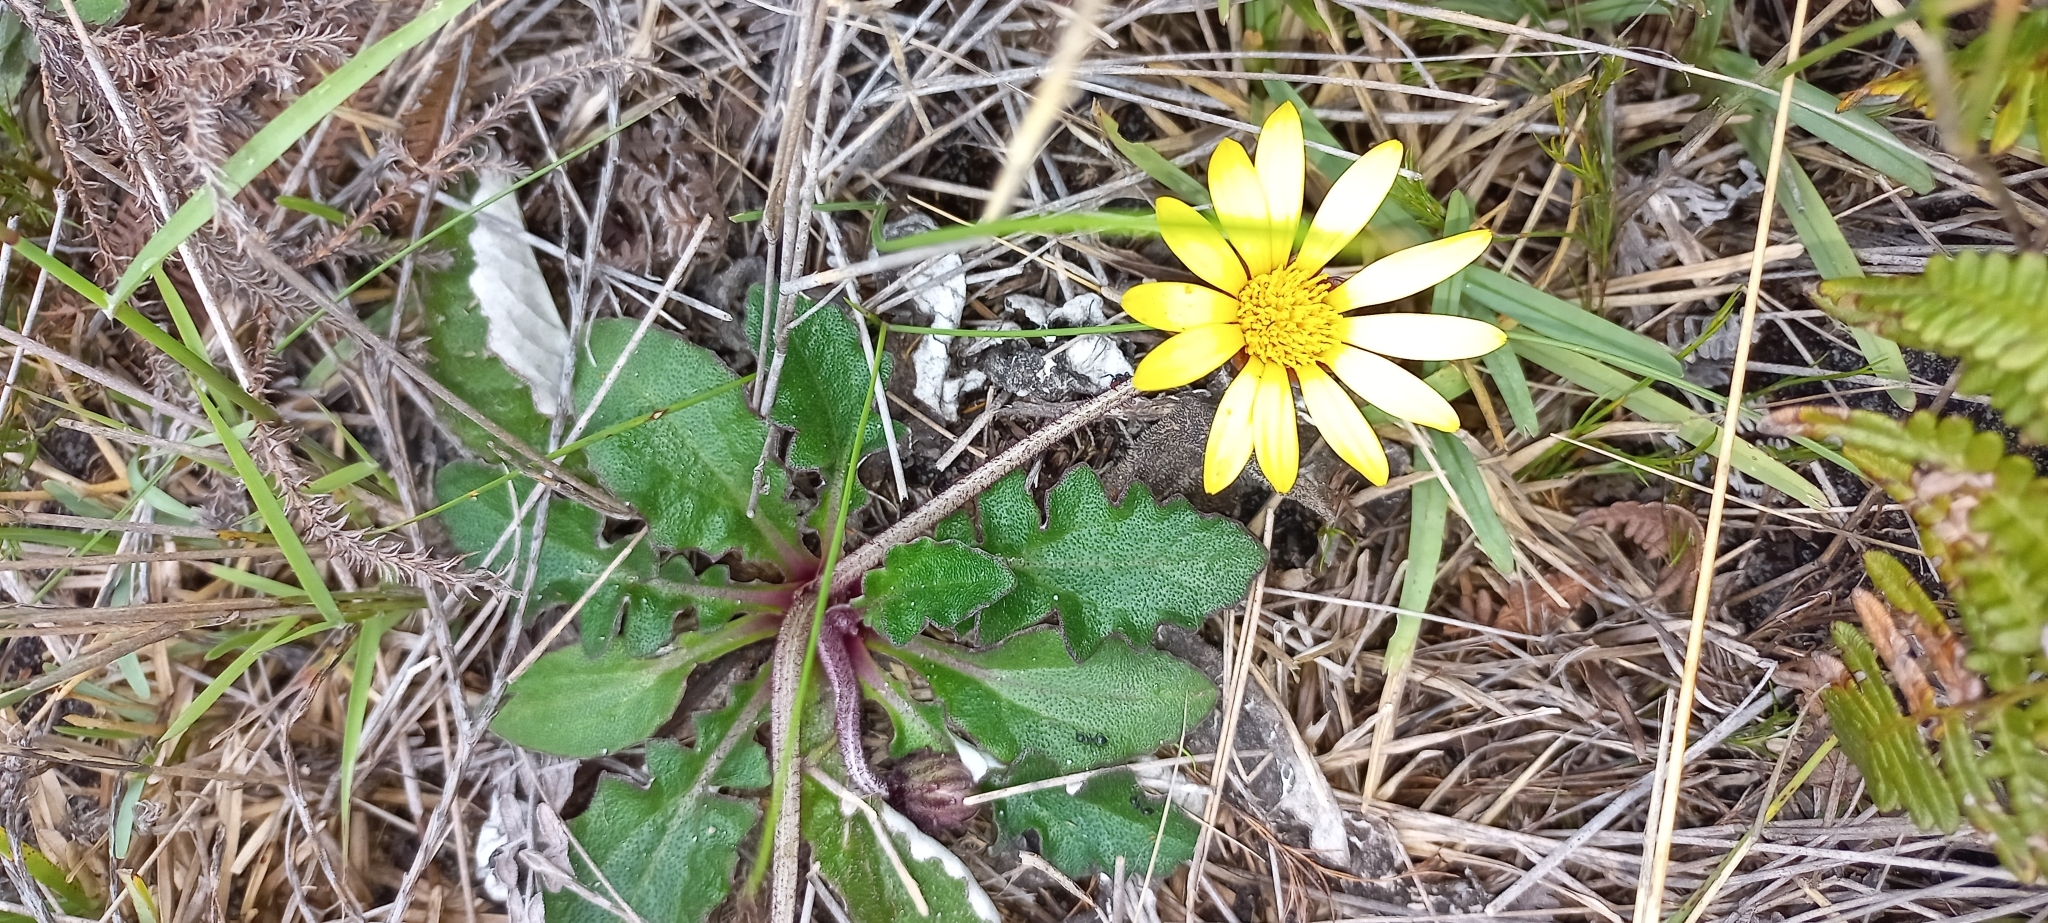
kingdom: Plantae
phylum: Tracheophyta
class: Magnoliopsida
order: Asterales
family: Asteraceae
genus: Haplocarpha
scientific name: Haplocarpha lanata
